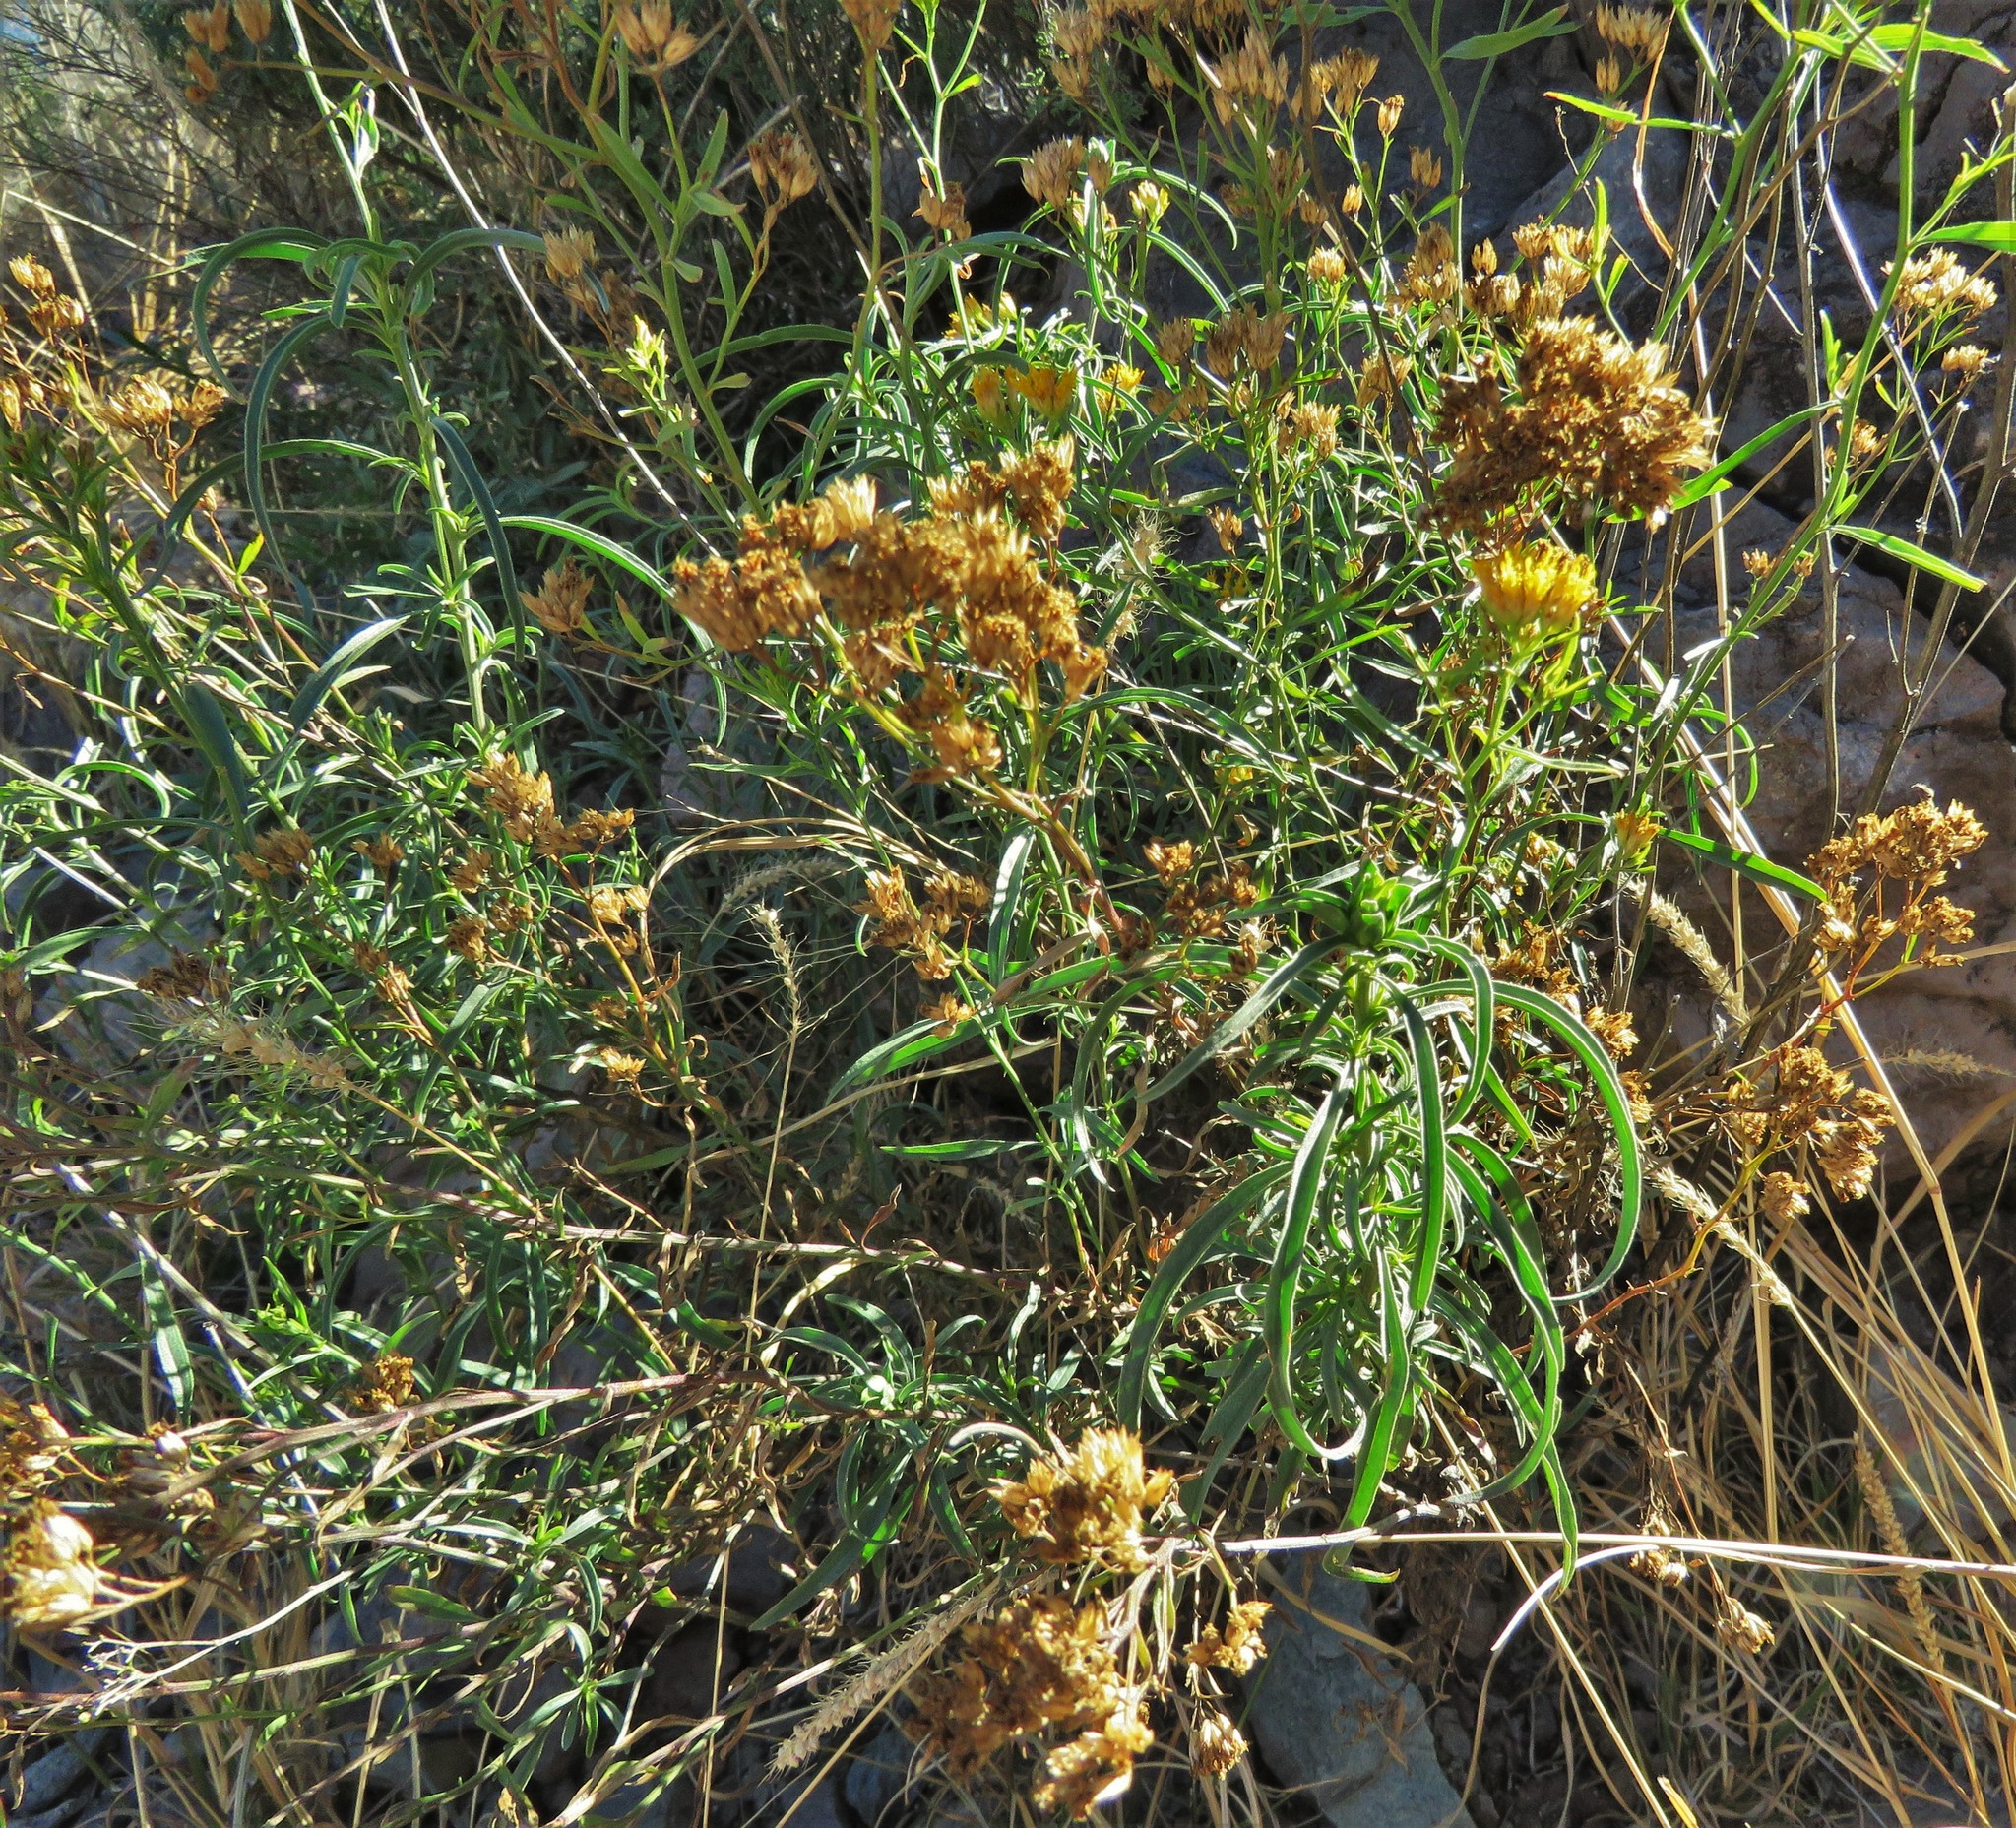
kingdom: Plantae
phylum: Tracheophyta
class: Magnoliopsida
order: Asterales
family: Asteraceae
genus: Gymnosperma
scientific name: Gymnosperma glutinosum
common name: Gumhead
